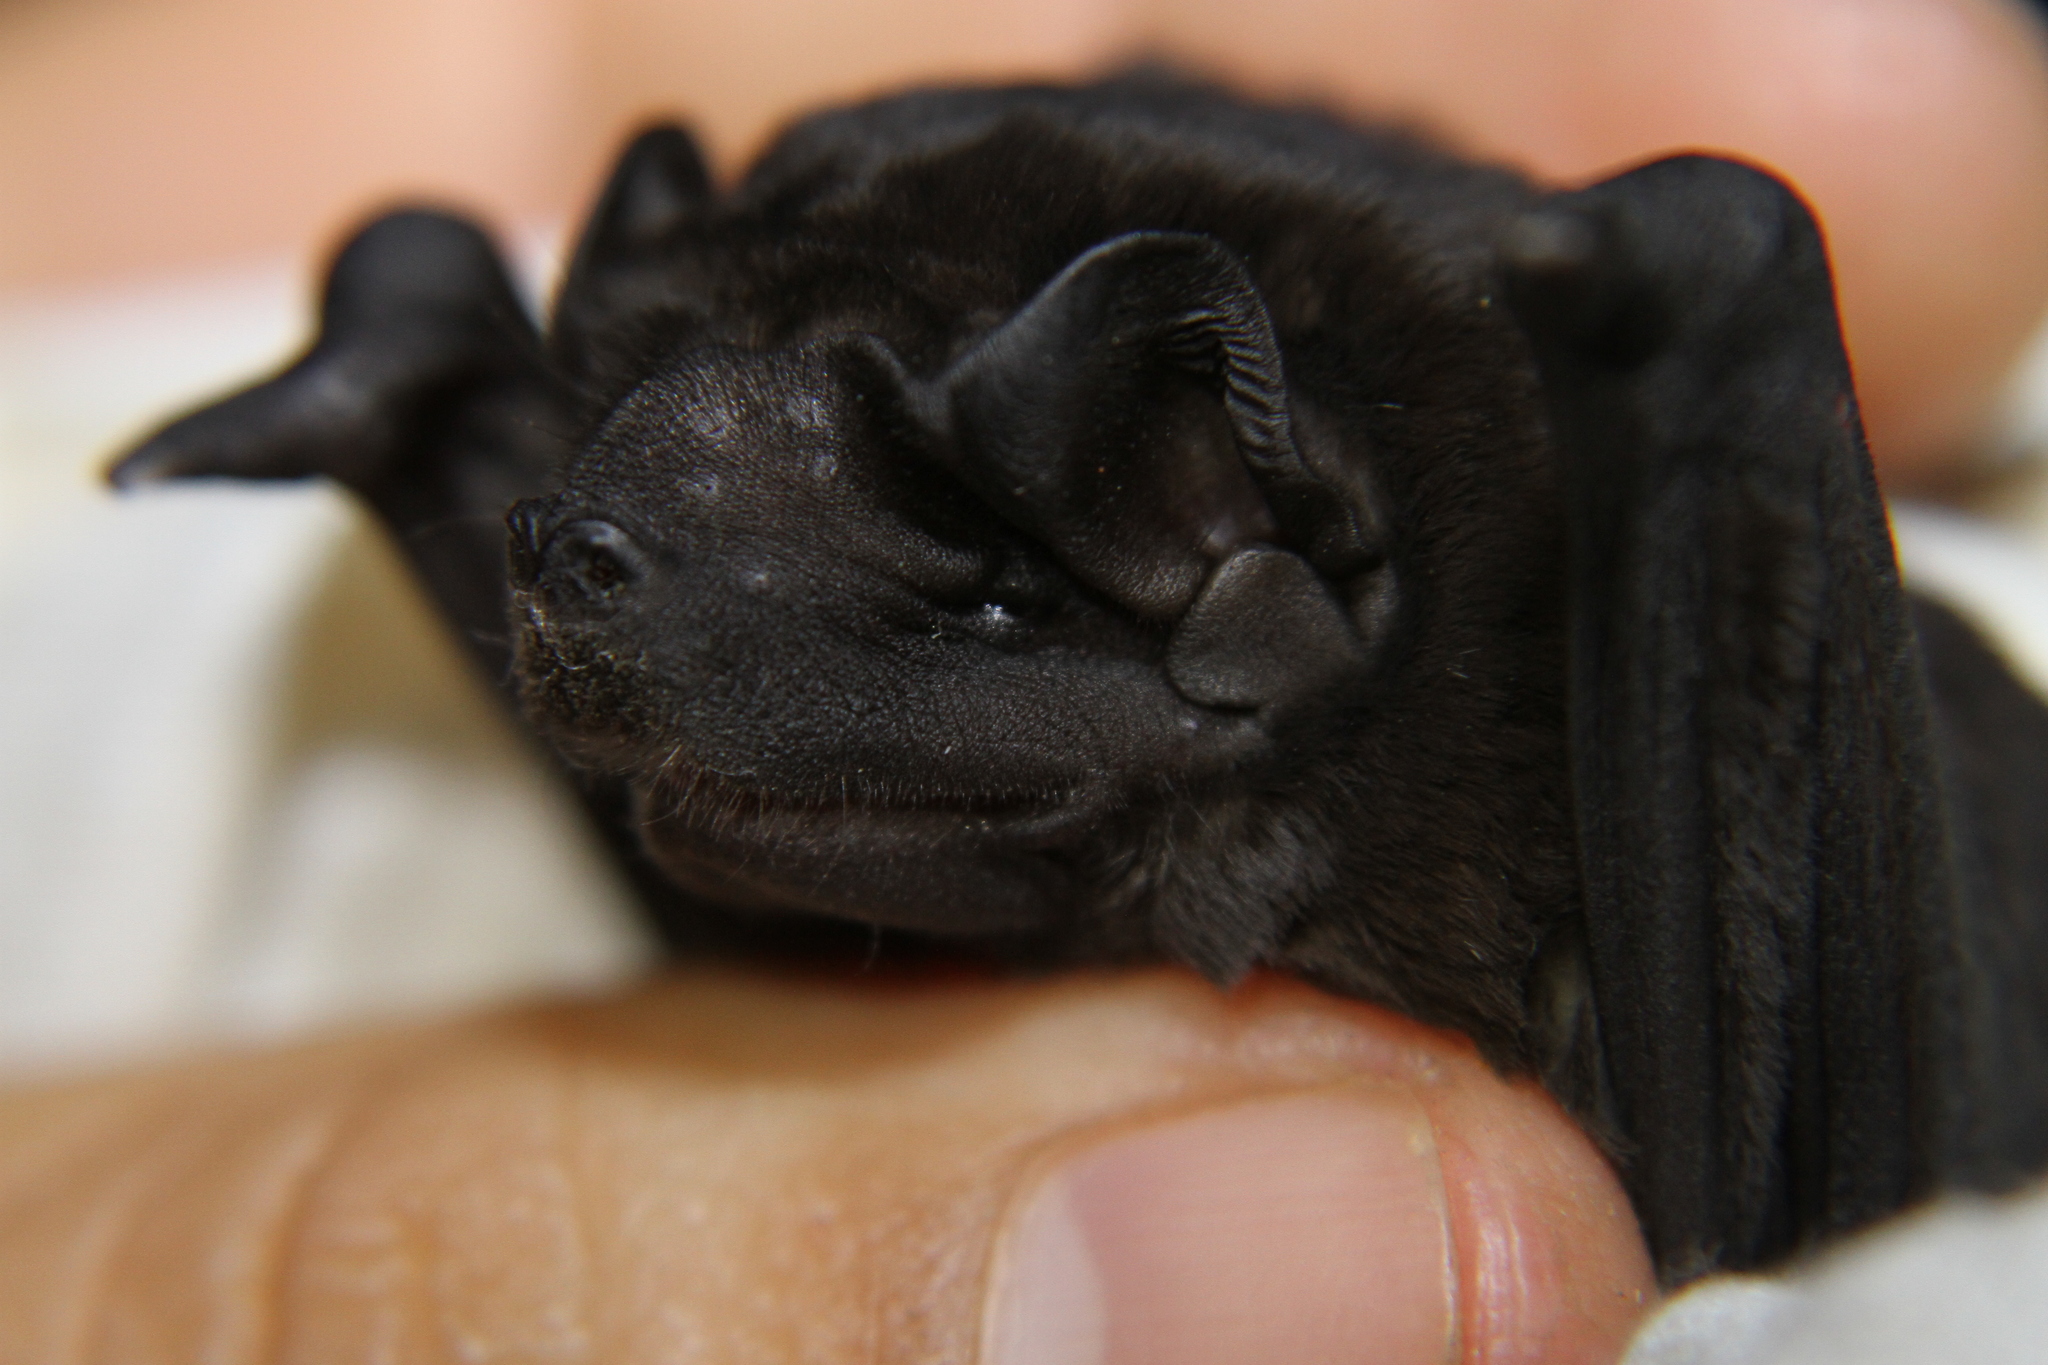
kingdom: Animalia
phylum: Chordata
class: Mammalia
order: Chiroptera
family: Molossidae
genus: Molossus
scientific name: Molossus rufus
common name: Black mastiff bat
